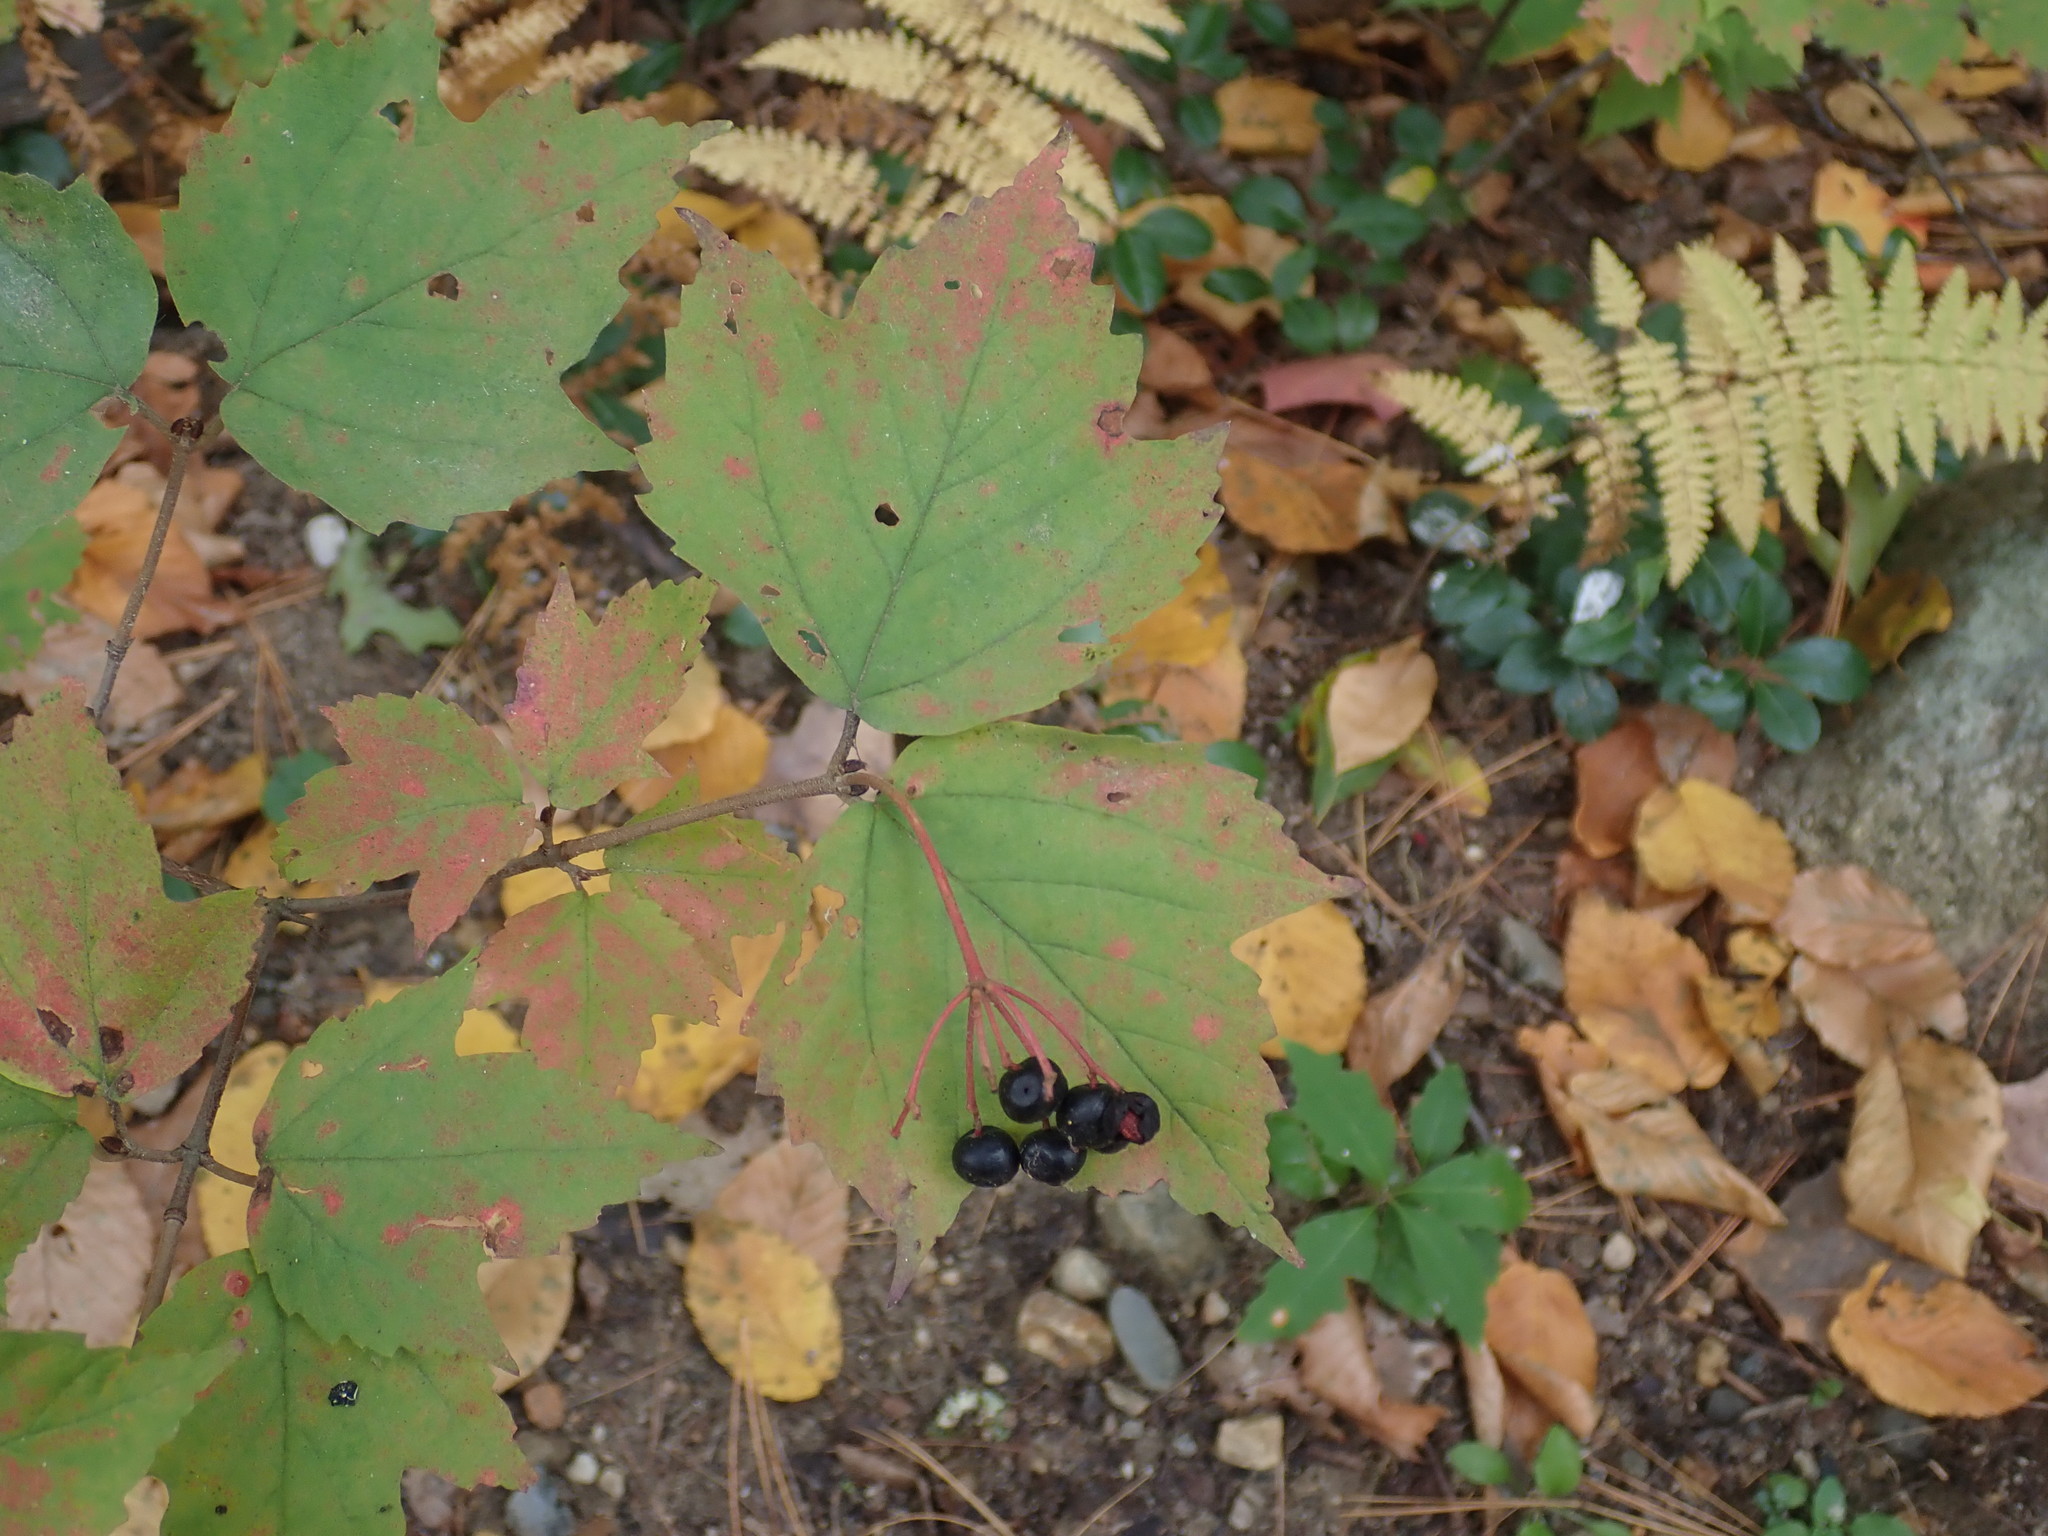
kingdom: Plantae
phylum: Tracheophyta
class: Magnoliopsida
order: Dipsacales
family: Viburnaceae
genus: Viburnum
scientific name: Viburnum acerifolium
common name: Dockmackie
